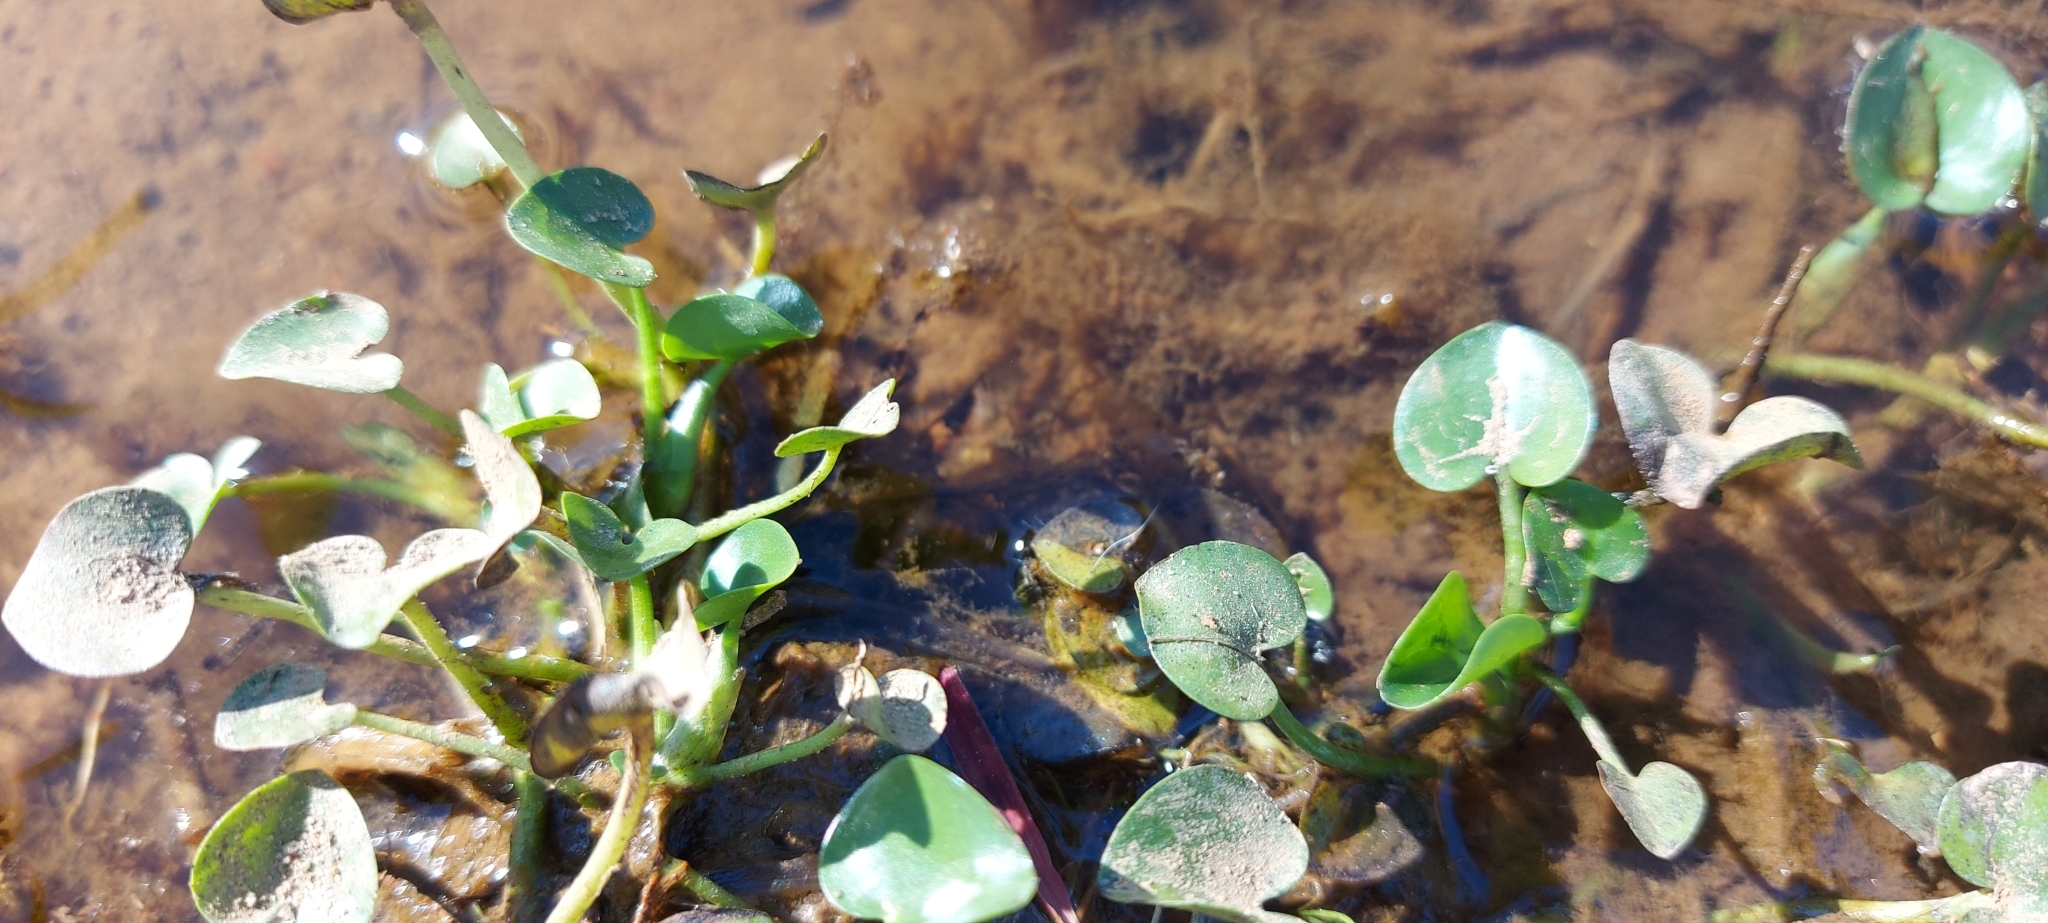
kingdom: Plantae
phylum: Tracheophyta
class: Liliopsida
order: Commelinales
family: Pontederiaceae
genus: Heteranthera
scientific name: Heteranthera reniformis
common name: Kidneyleaf mudplantain
